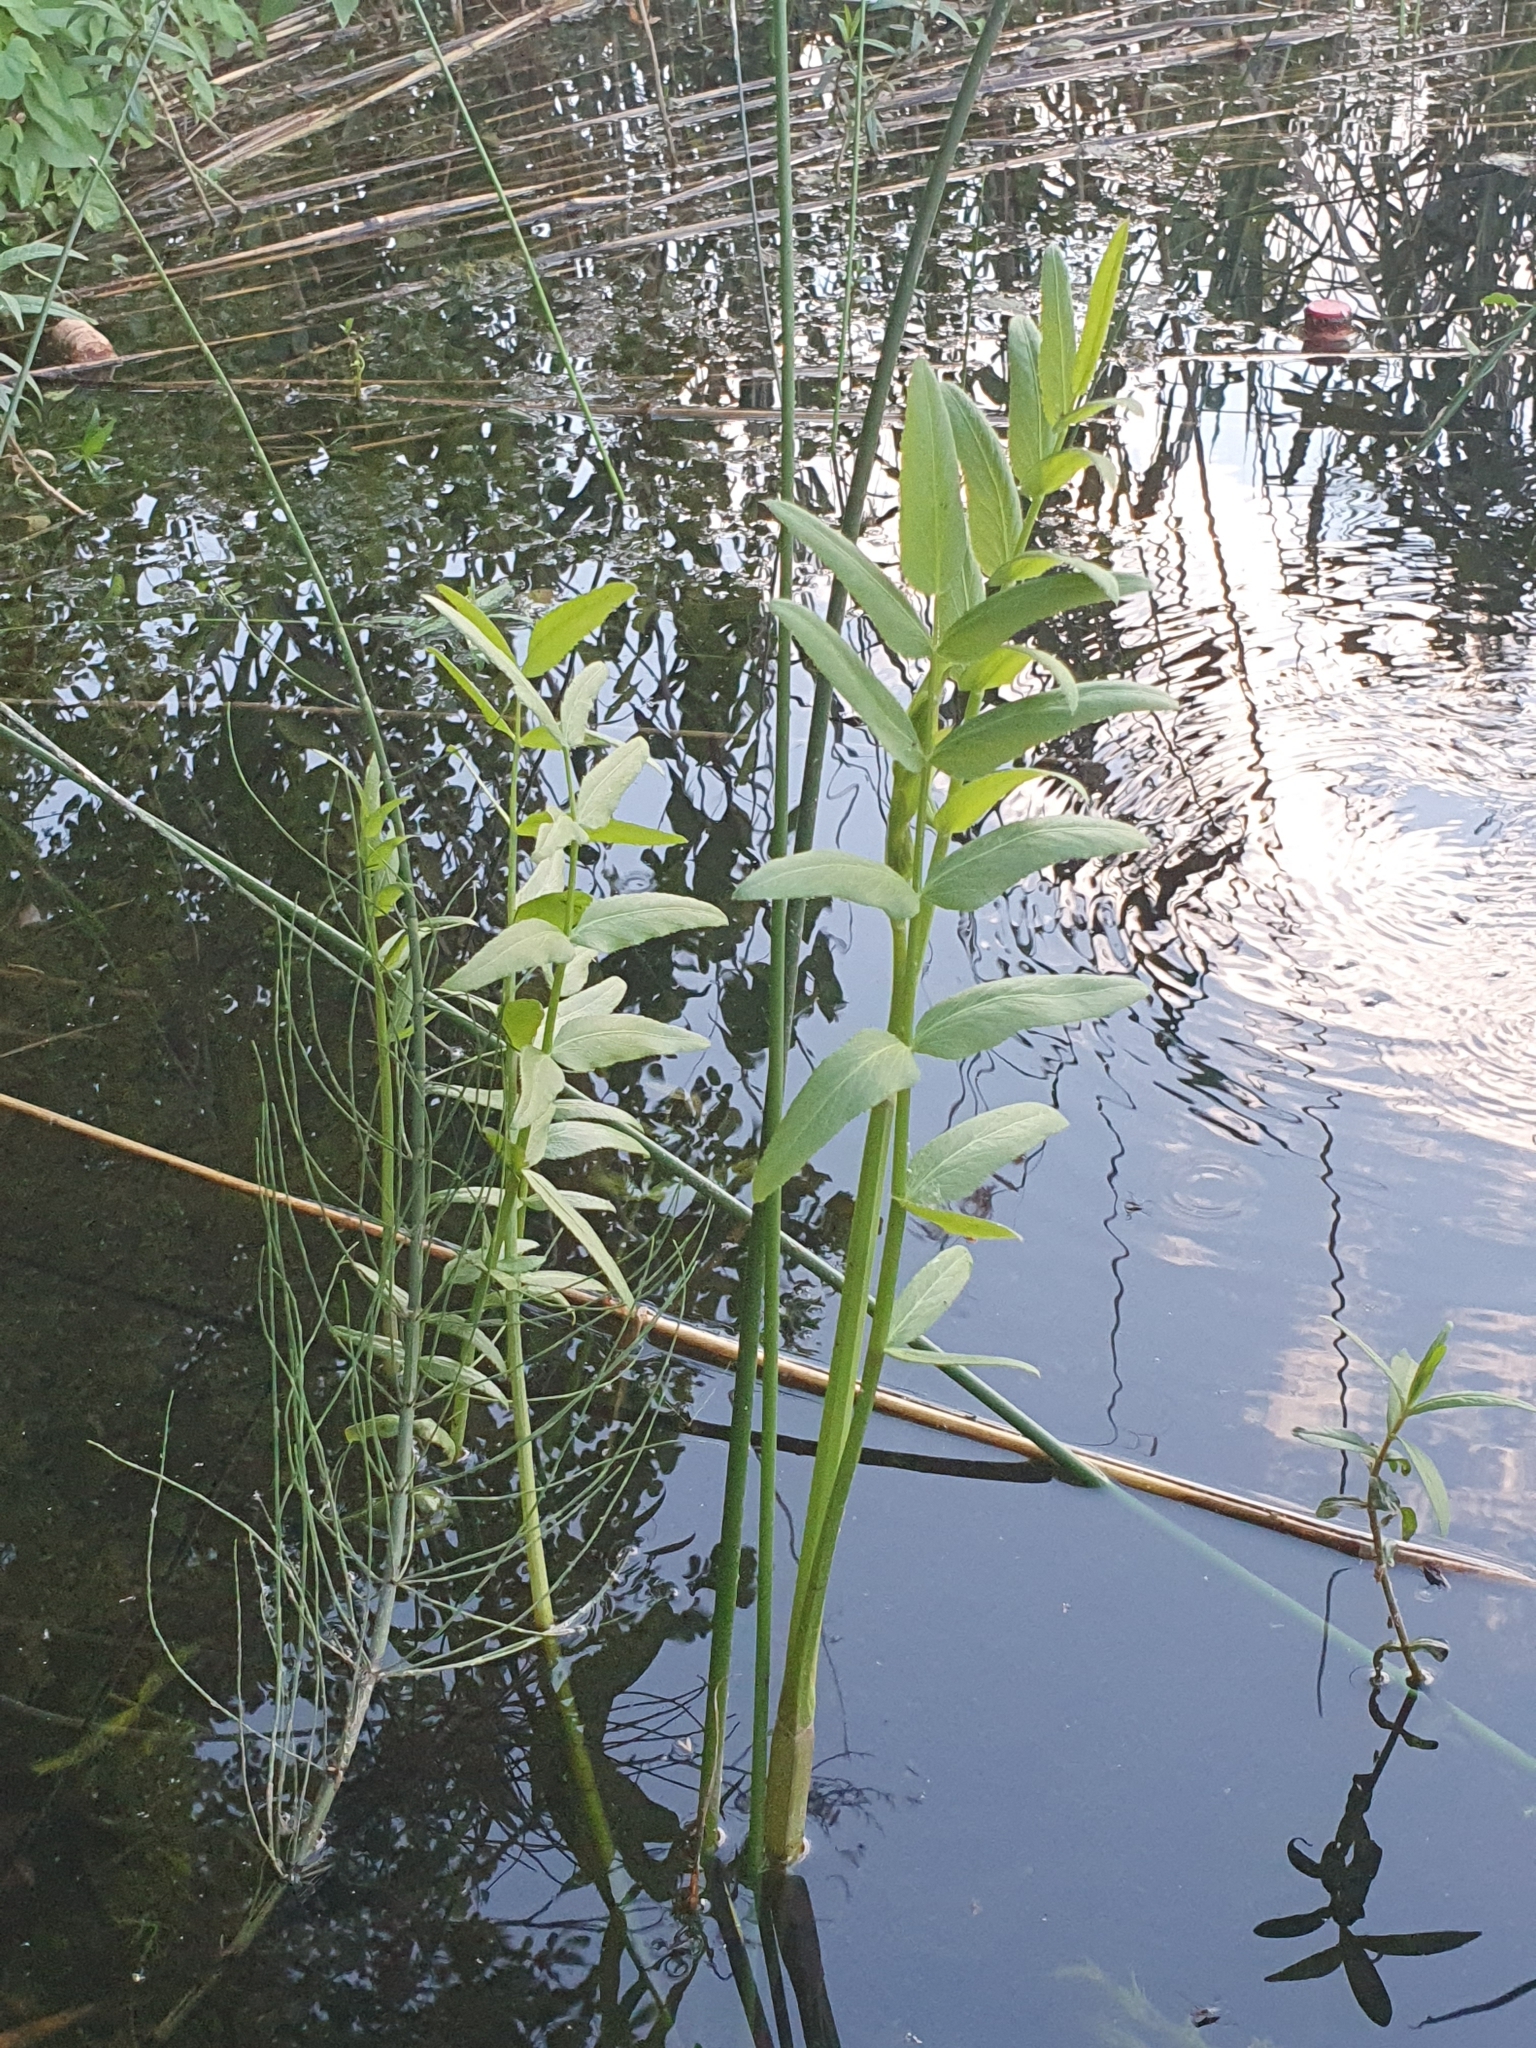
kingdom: Plantae
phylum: Tracheophyta
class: Magnoliopsida
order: Apiales
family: Apiaceae
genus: Sium
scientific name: Sium latifolium
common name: Greater water-parsnip
